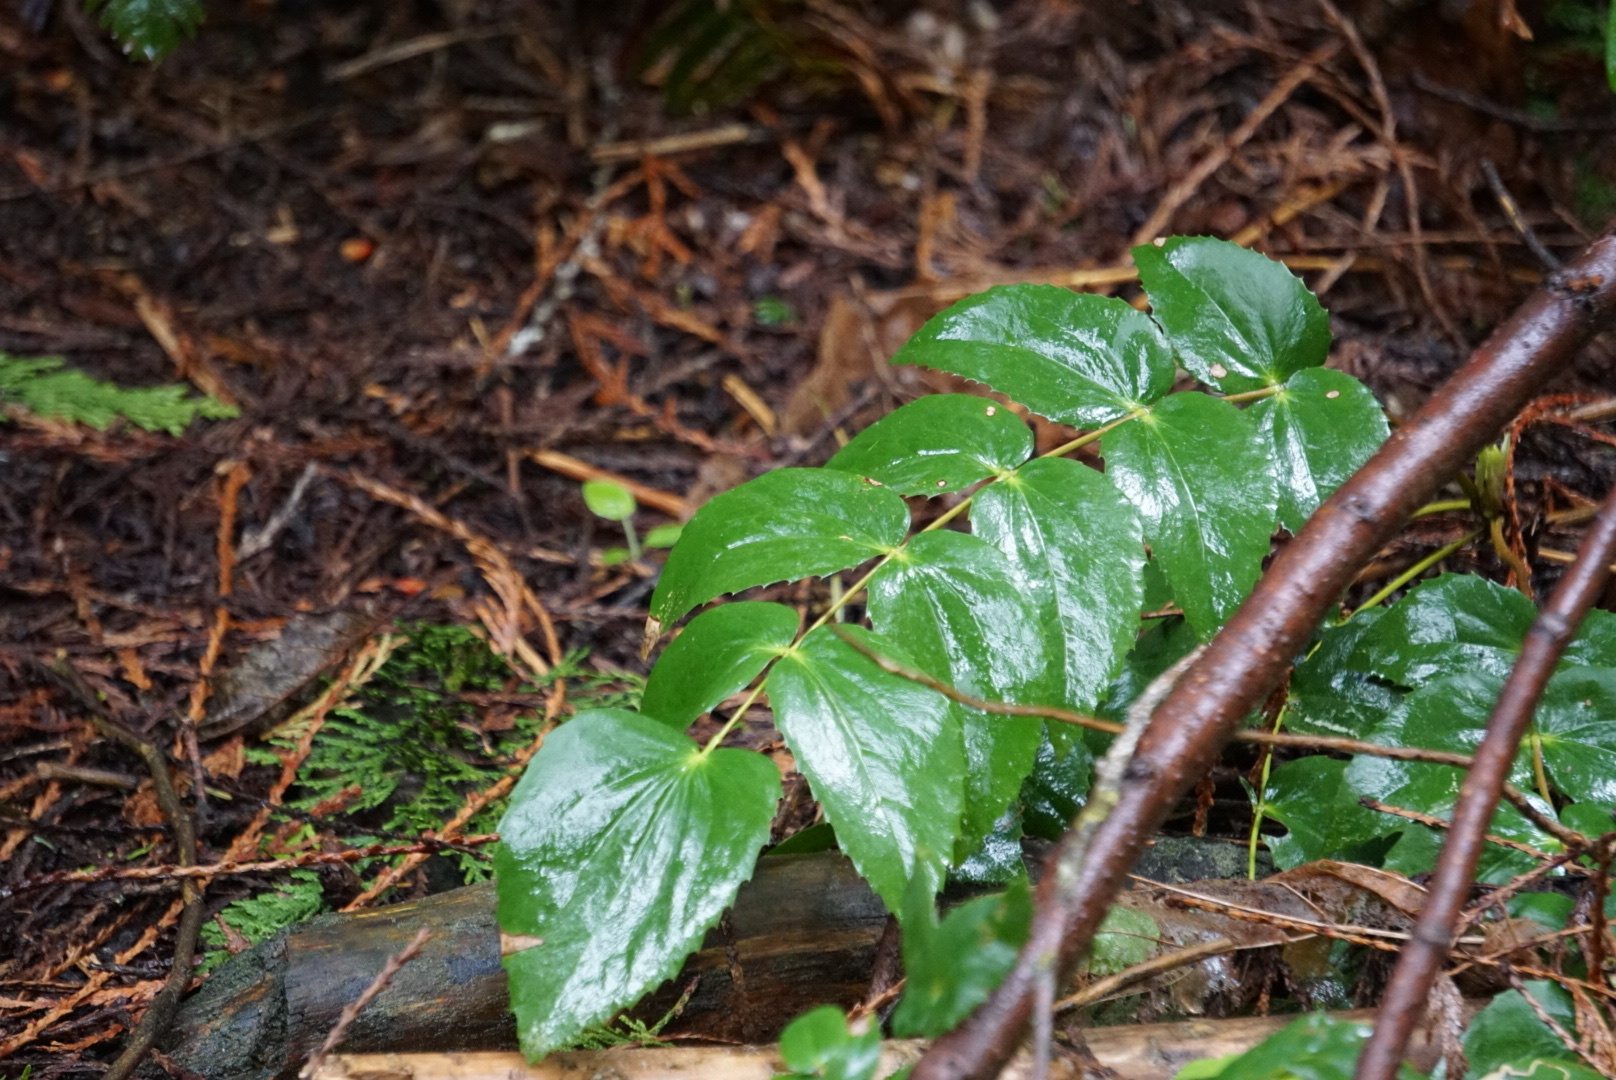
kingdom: Plantae
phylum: Tracheophyta
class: Magnoliopsida
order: Ranunculales
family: Berberidaceae
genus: Mahonia
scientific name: Mahonia nervosa
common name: Cascade oregon-grape
